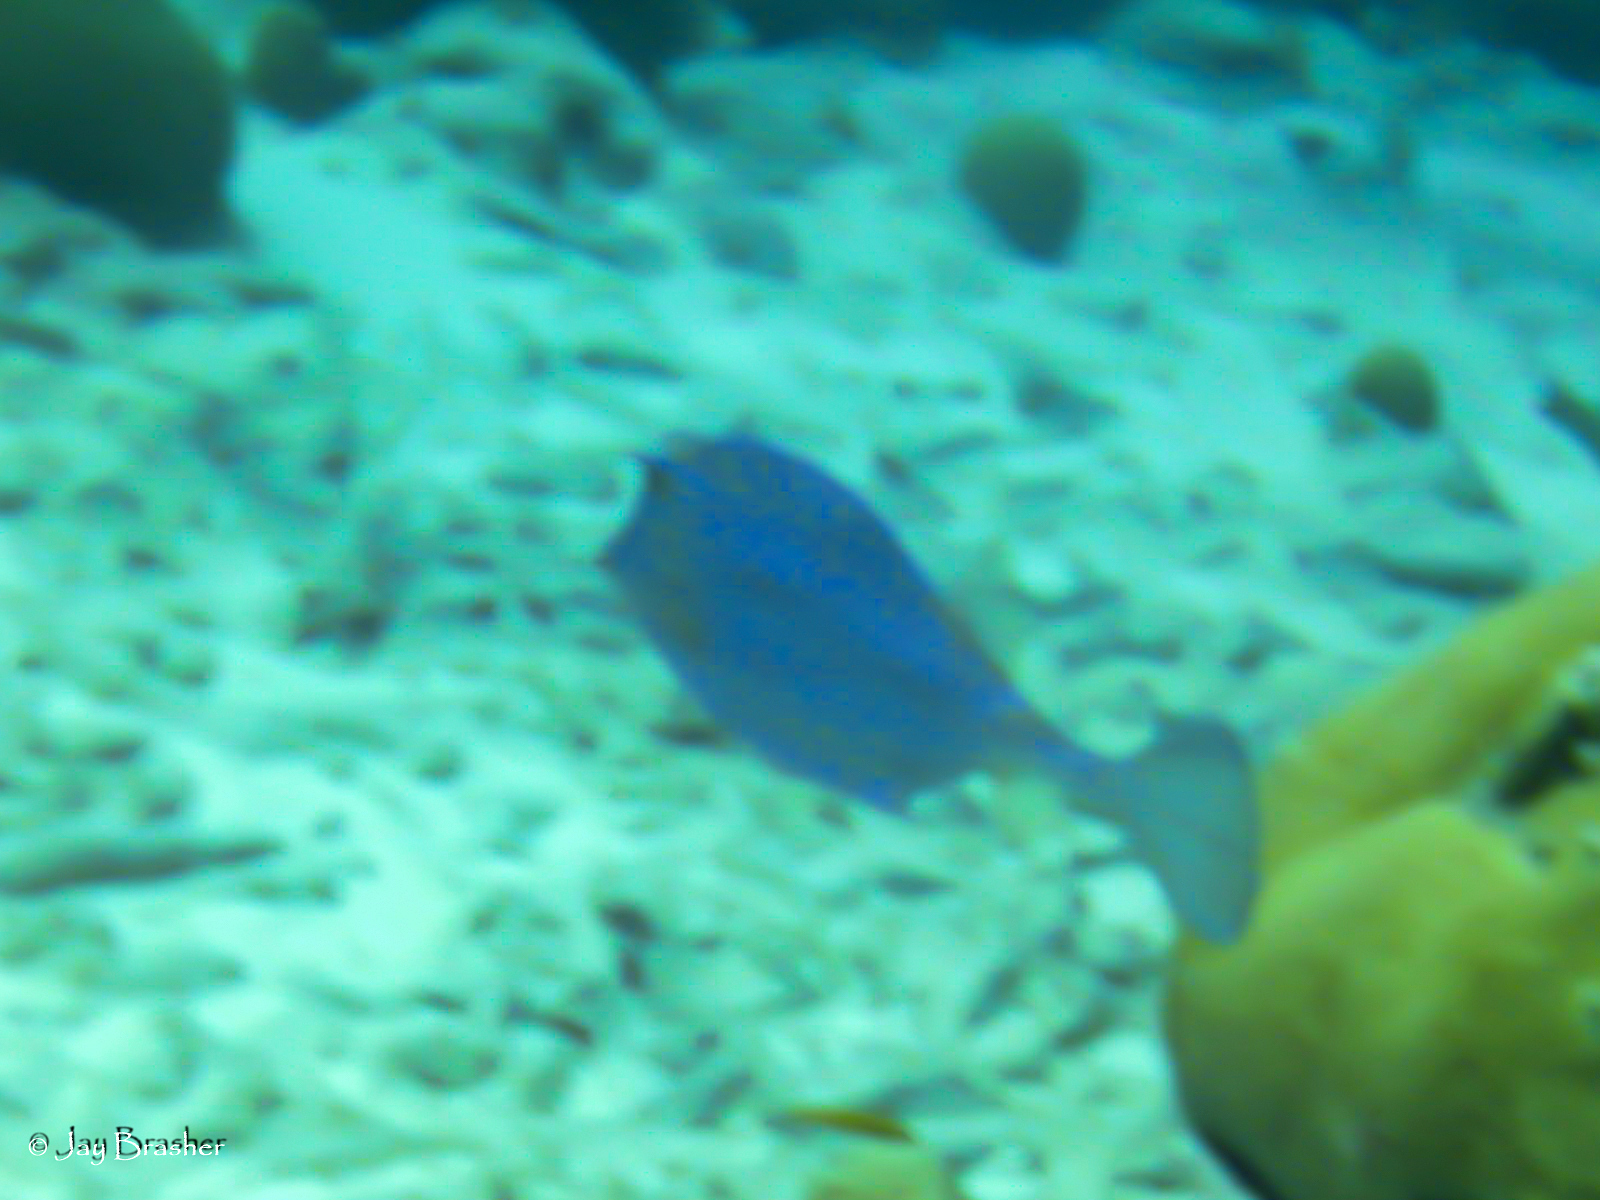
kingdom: Animalia
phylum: Chordata
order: Tetraodontiformes
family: Ostraciidae
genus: Acanthostracion
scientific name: Acanthostracion quadricornis
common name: Scrawled cowfish
